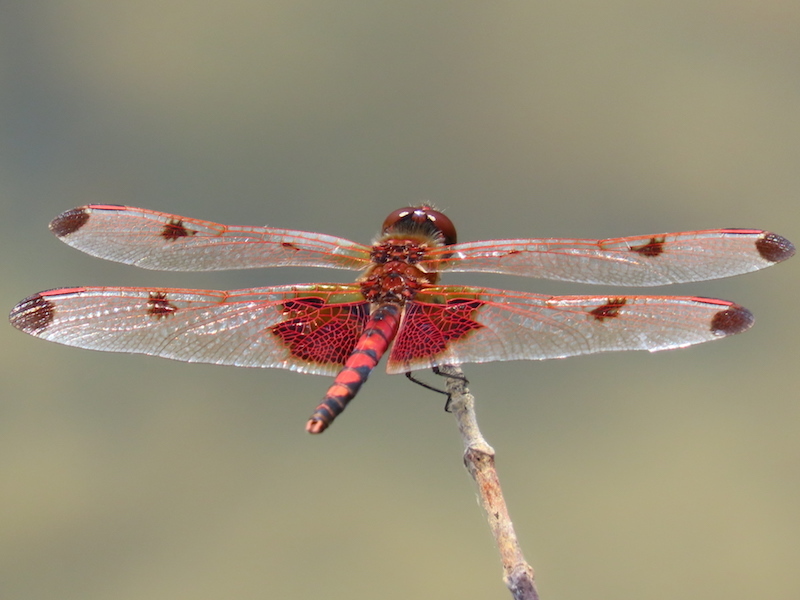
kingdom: Animalia
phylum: Arthropoda
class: Insecta
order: Odonata
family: Libellulidae
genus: Celithemis
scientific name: Celithemis elisa
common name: Calico pennant
